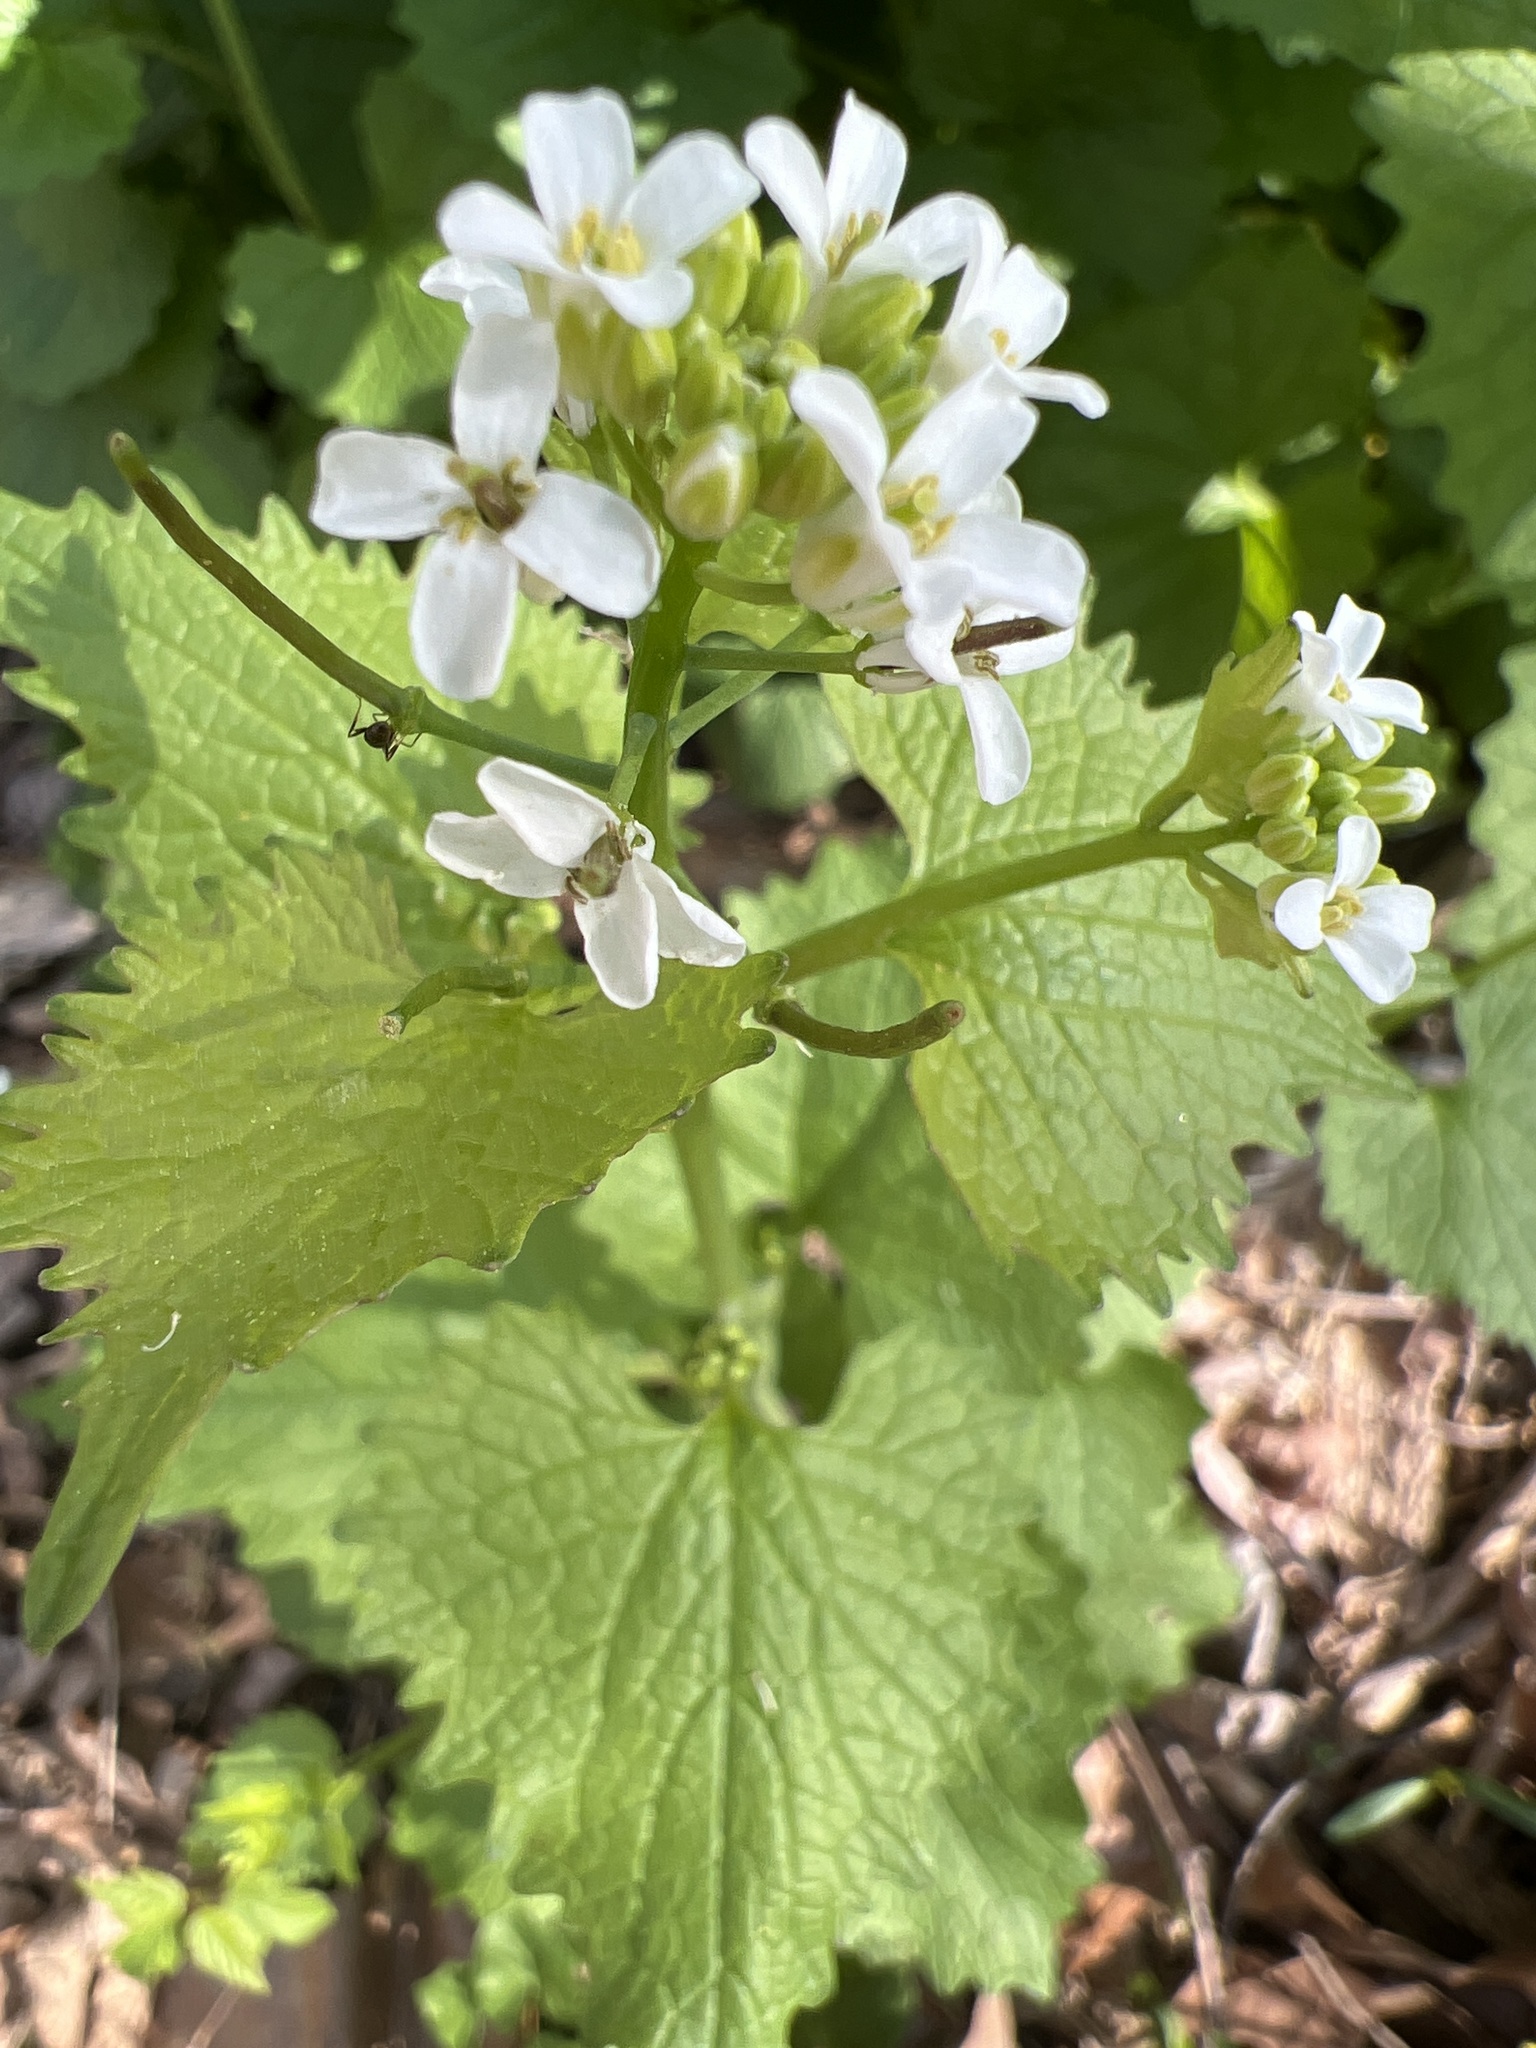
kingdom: Plantae
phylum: Tracheophyta
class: Magnoliopsida
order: Brassicales
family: Brassicaceae
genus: Alliaria
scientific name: Alliaria petiolata
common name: Garlic mustard
